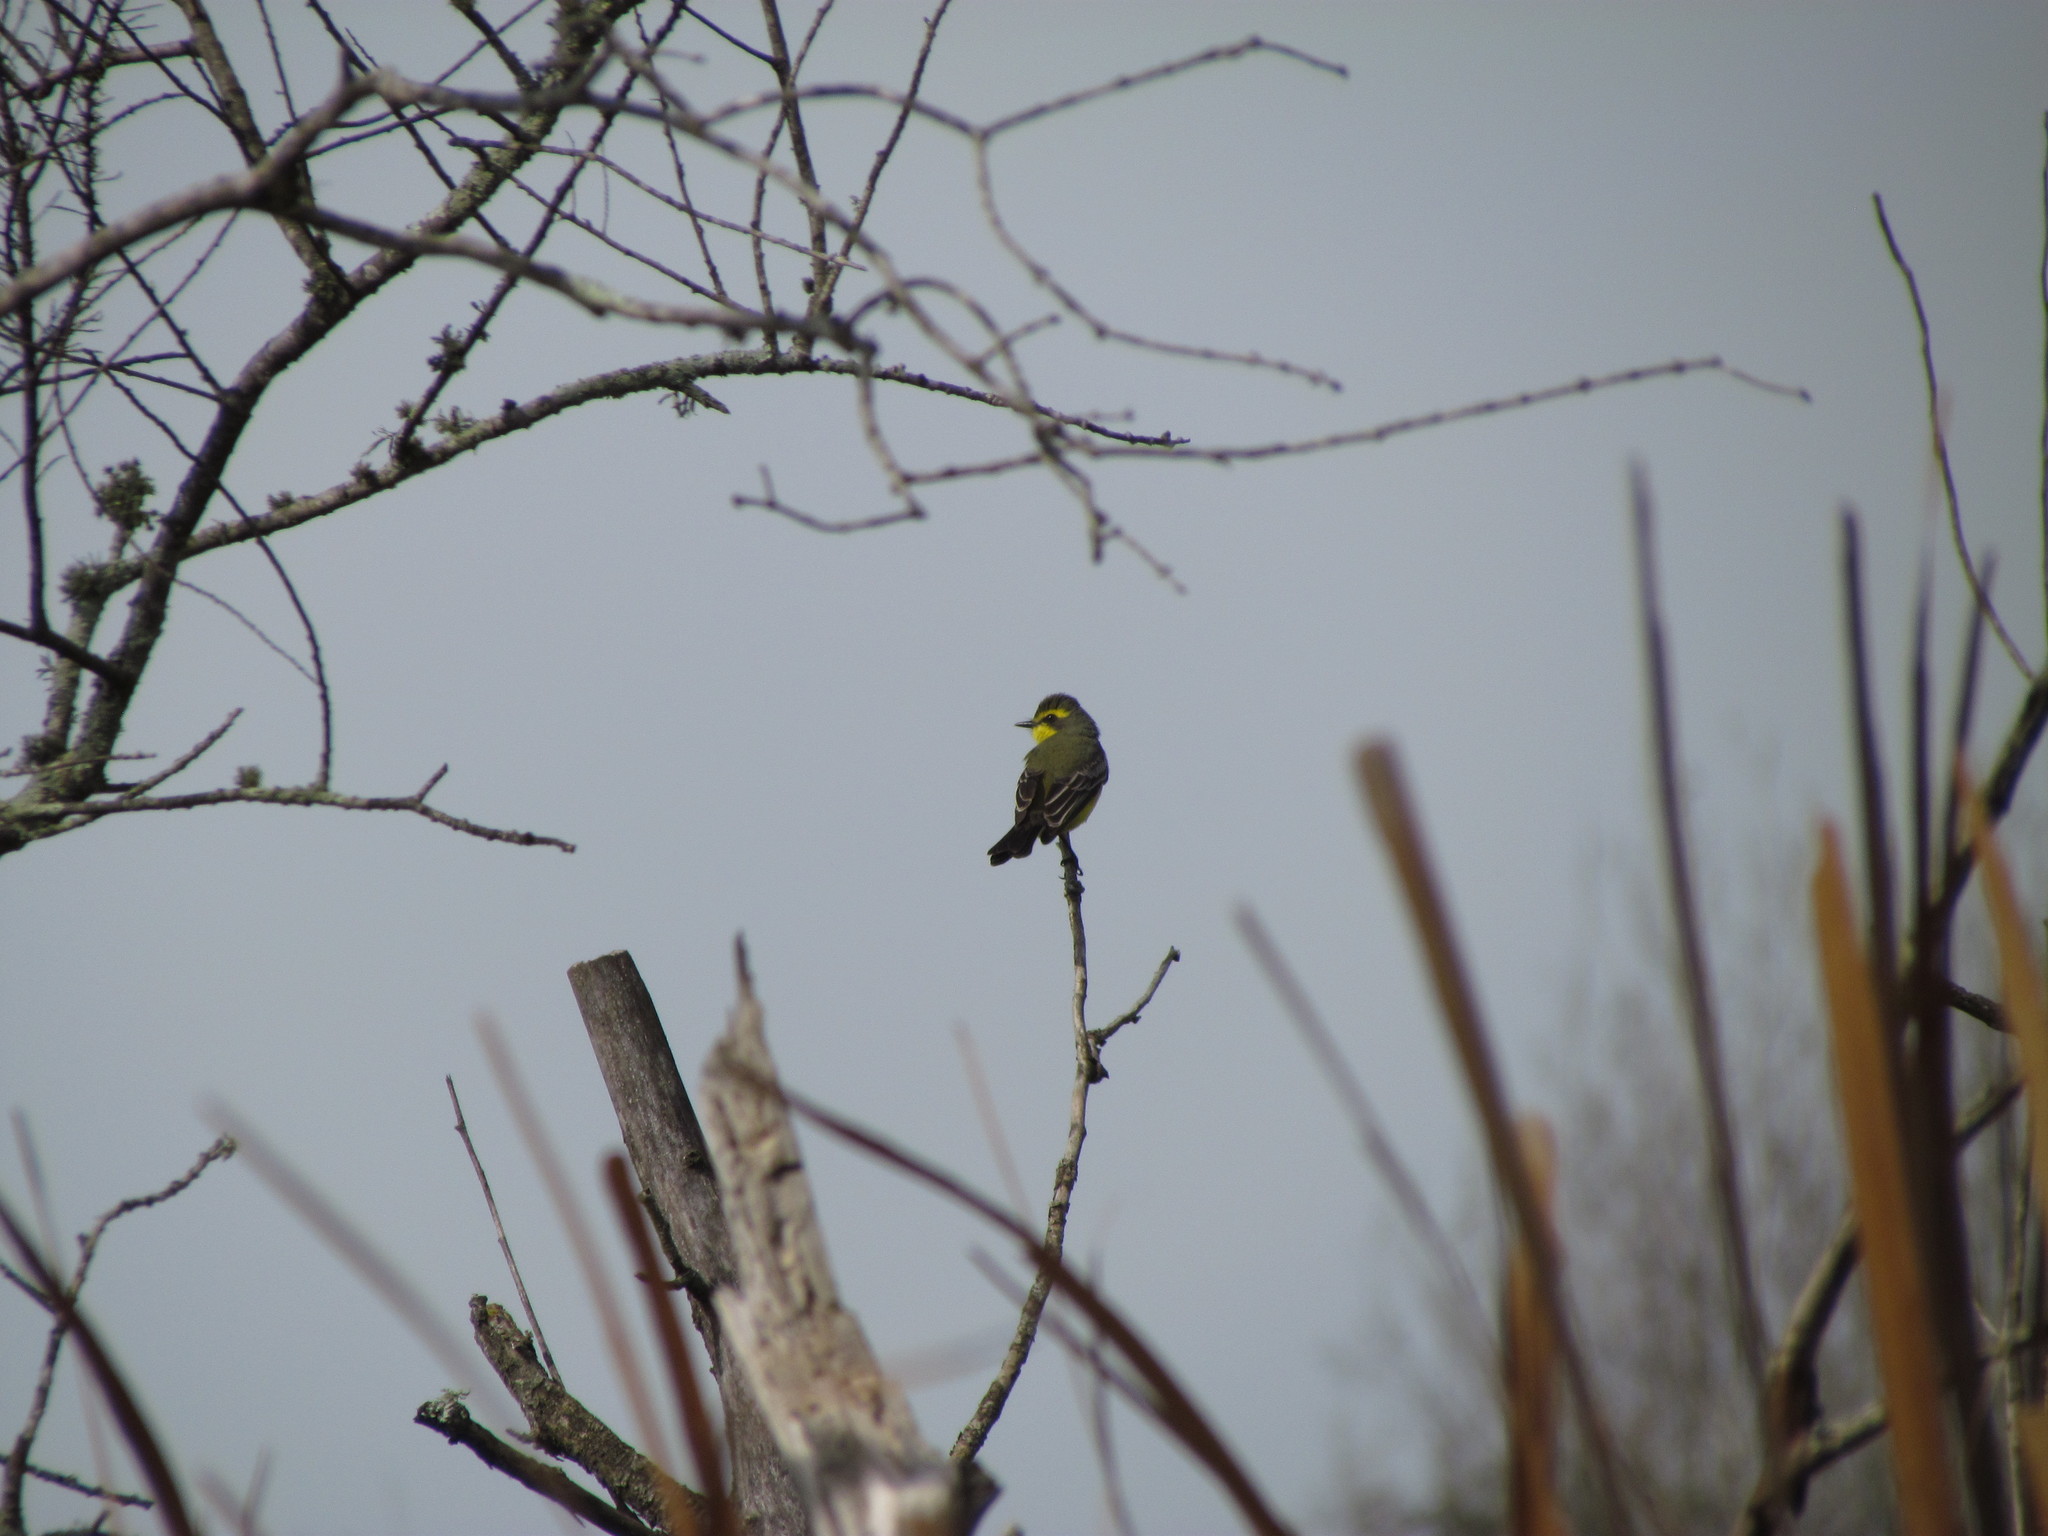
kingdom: Animalia
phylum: Chordata
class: Aves
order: Passeriformes
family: Tyrannidae
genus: Satrapa
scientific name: Satrapa icterophrys
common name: Yellow-browed tyrant
